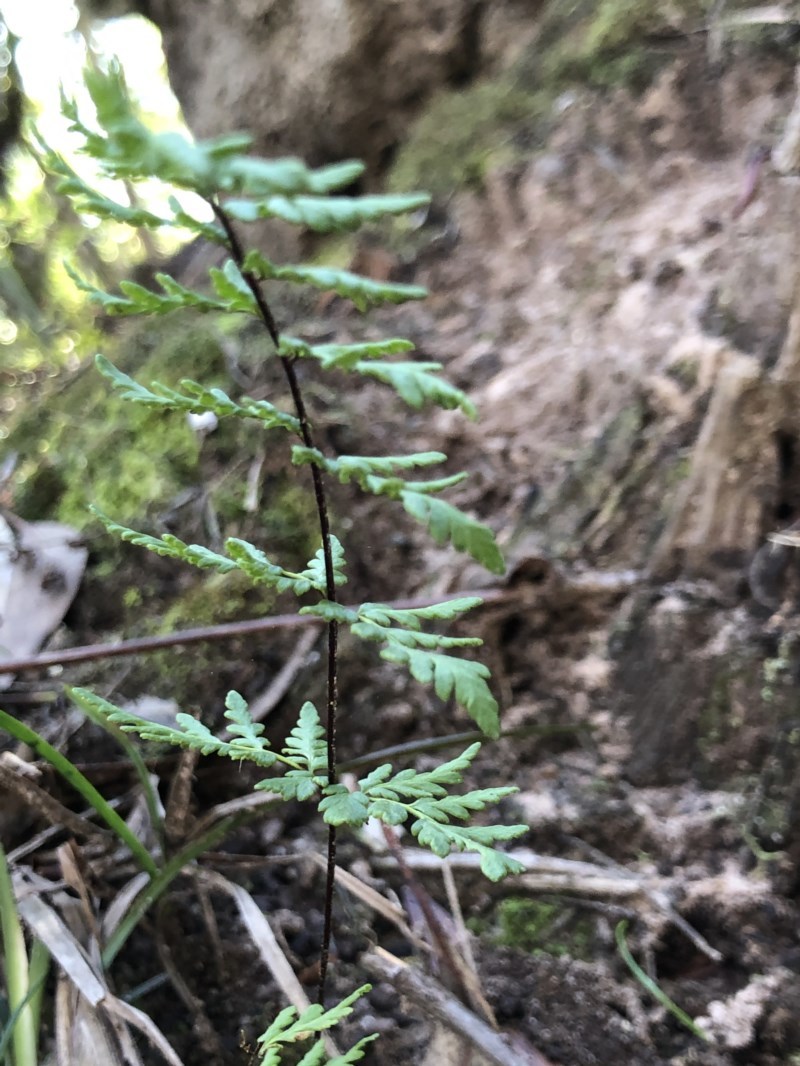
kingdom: Plantae
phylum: Tracheophyta
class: Polypodiopsida
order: Polypodiales
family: Pteridaceae
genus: Cheilanthes
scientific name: Cheilanthes sieberi
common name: Mulga fern
